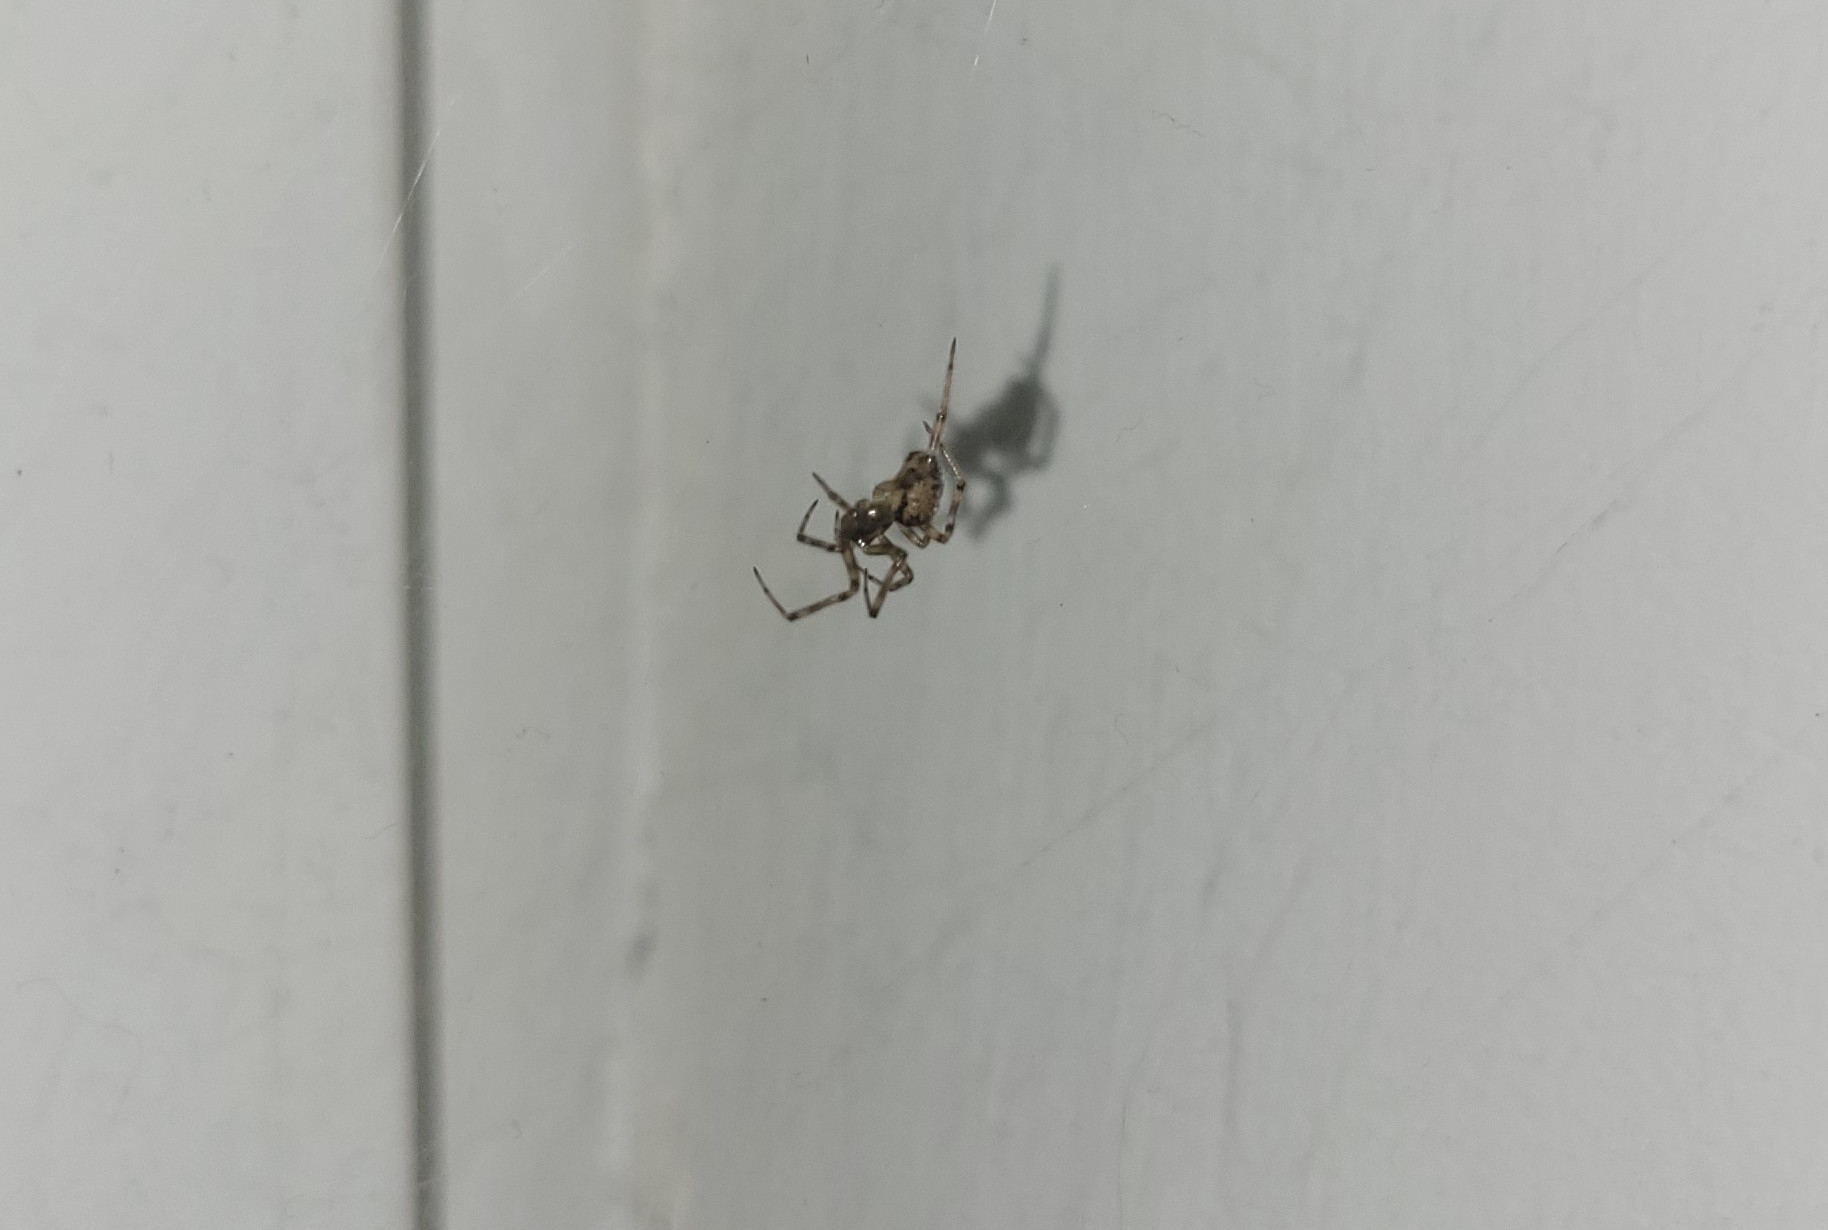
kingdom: Animalia
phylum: Arthropoda
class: Arachnida
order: Araneae
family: Theridiidae
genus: Steatoda
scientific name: Steatoda castanea
